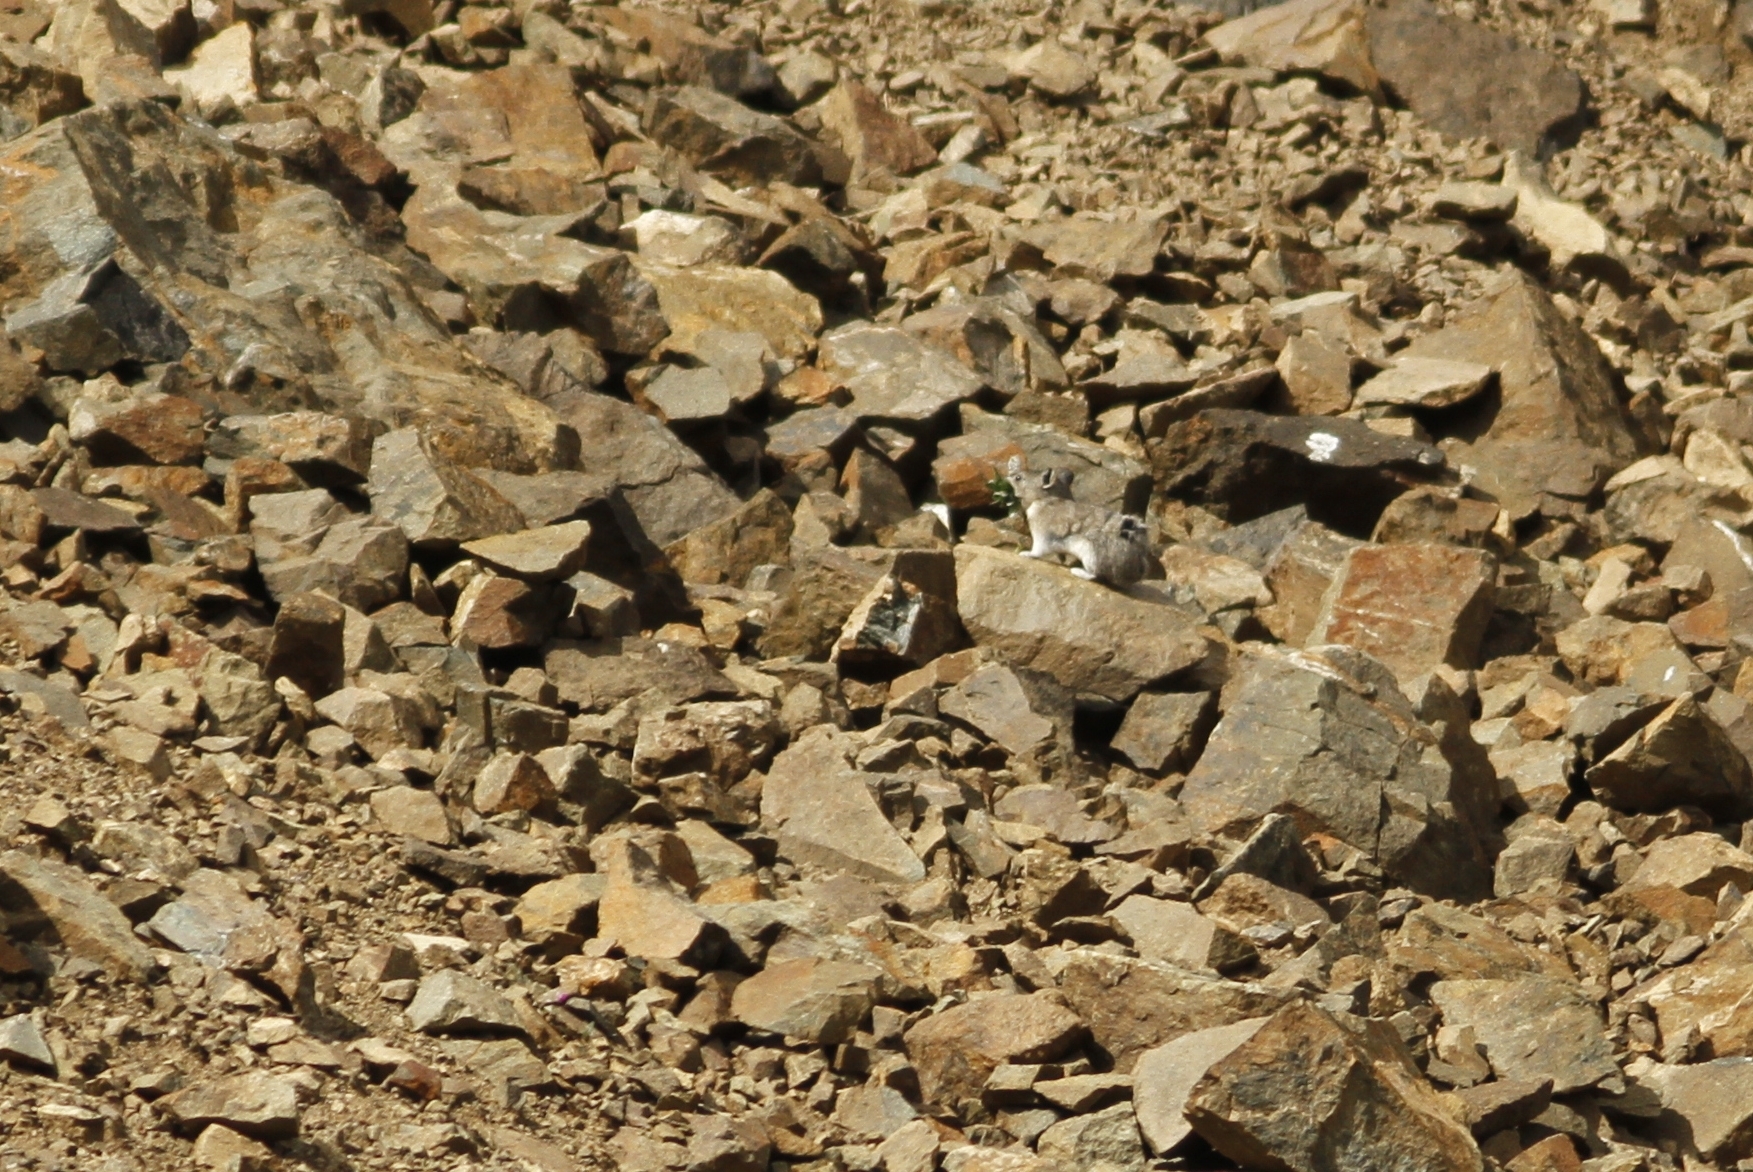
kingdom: Animalia
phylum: Chordata
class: Mammalia
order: Lagomorpha
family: Ochotonidae
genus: Ochotona
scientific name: Ochotona collaris
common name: Collared pika
